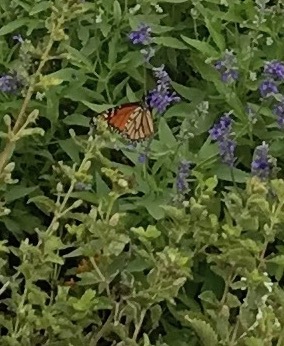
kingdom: Animalia
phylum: Arthropoda
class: Insecta
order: Lepidoptera
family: Nymphalidae
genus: Danaus
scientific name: Danaus plexippus
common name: Monarch
